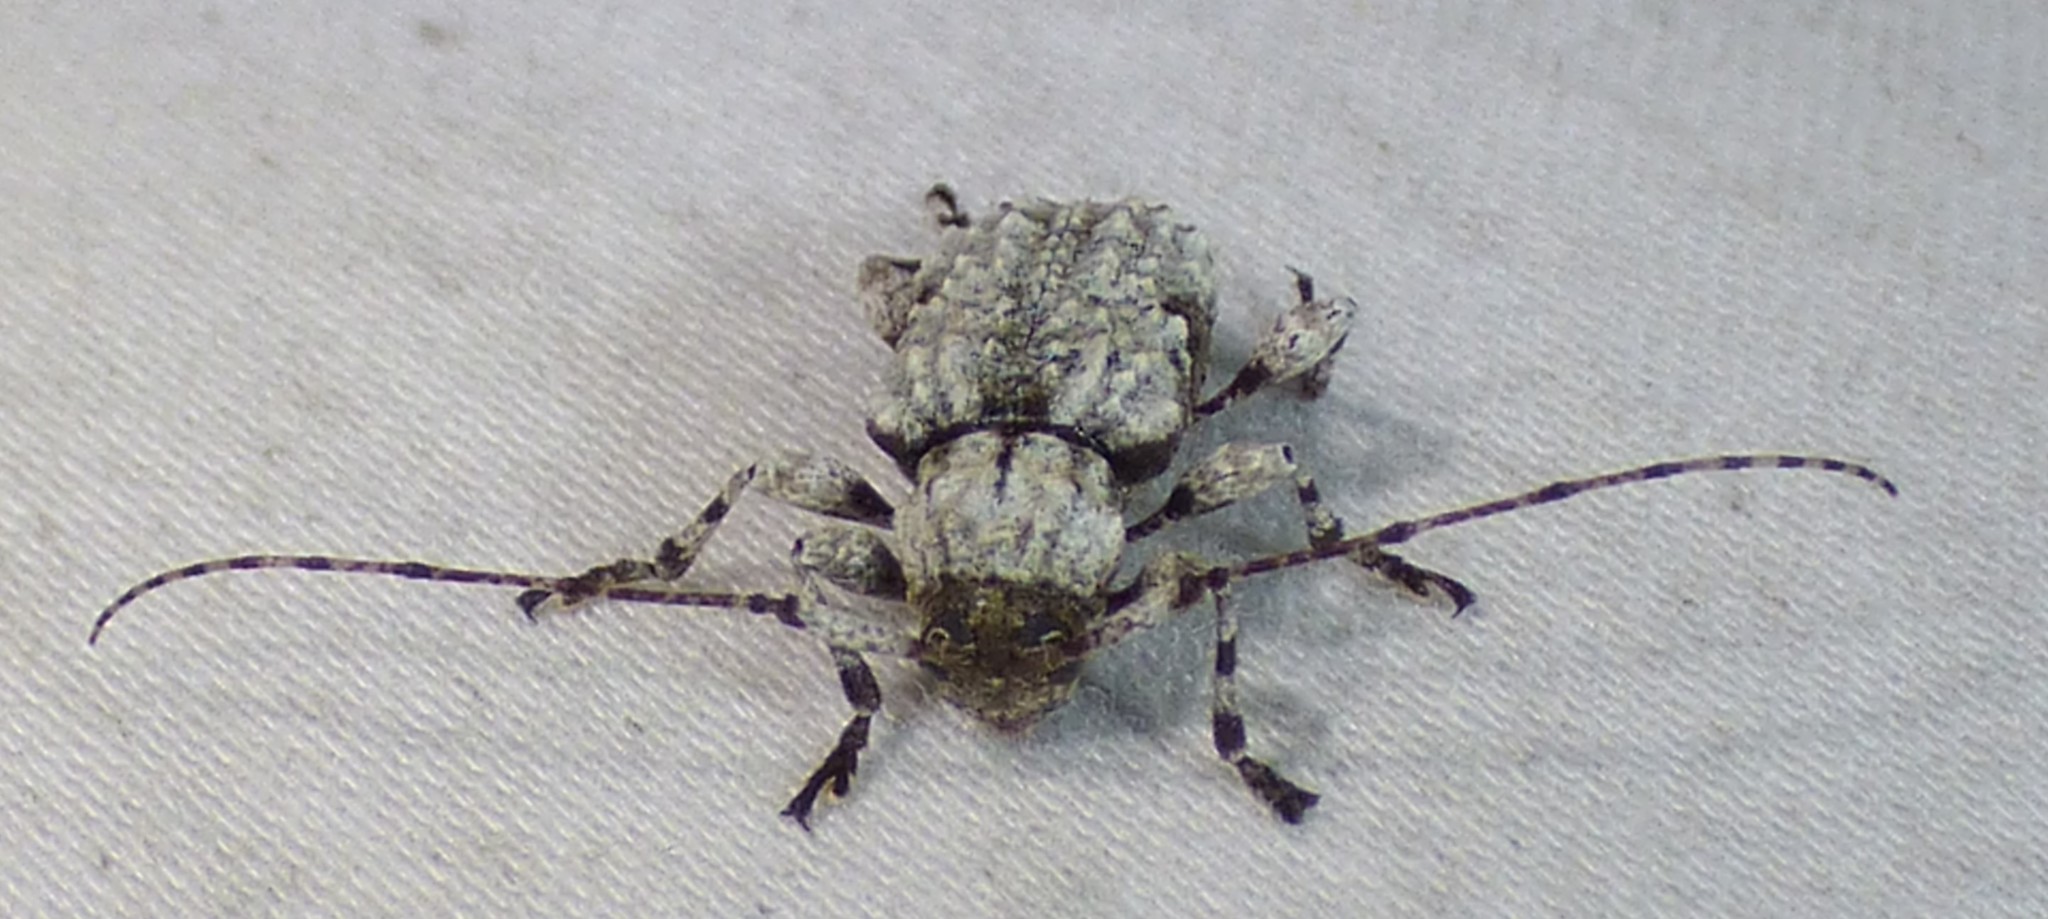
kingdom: Animalia
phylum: Arthropoda
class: Insecta
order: Coleoptera
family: Cerambycidae
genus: Leptostylus
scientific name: Leptostylus asperatus
